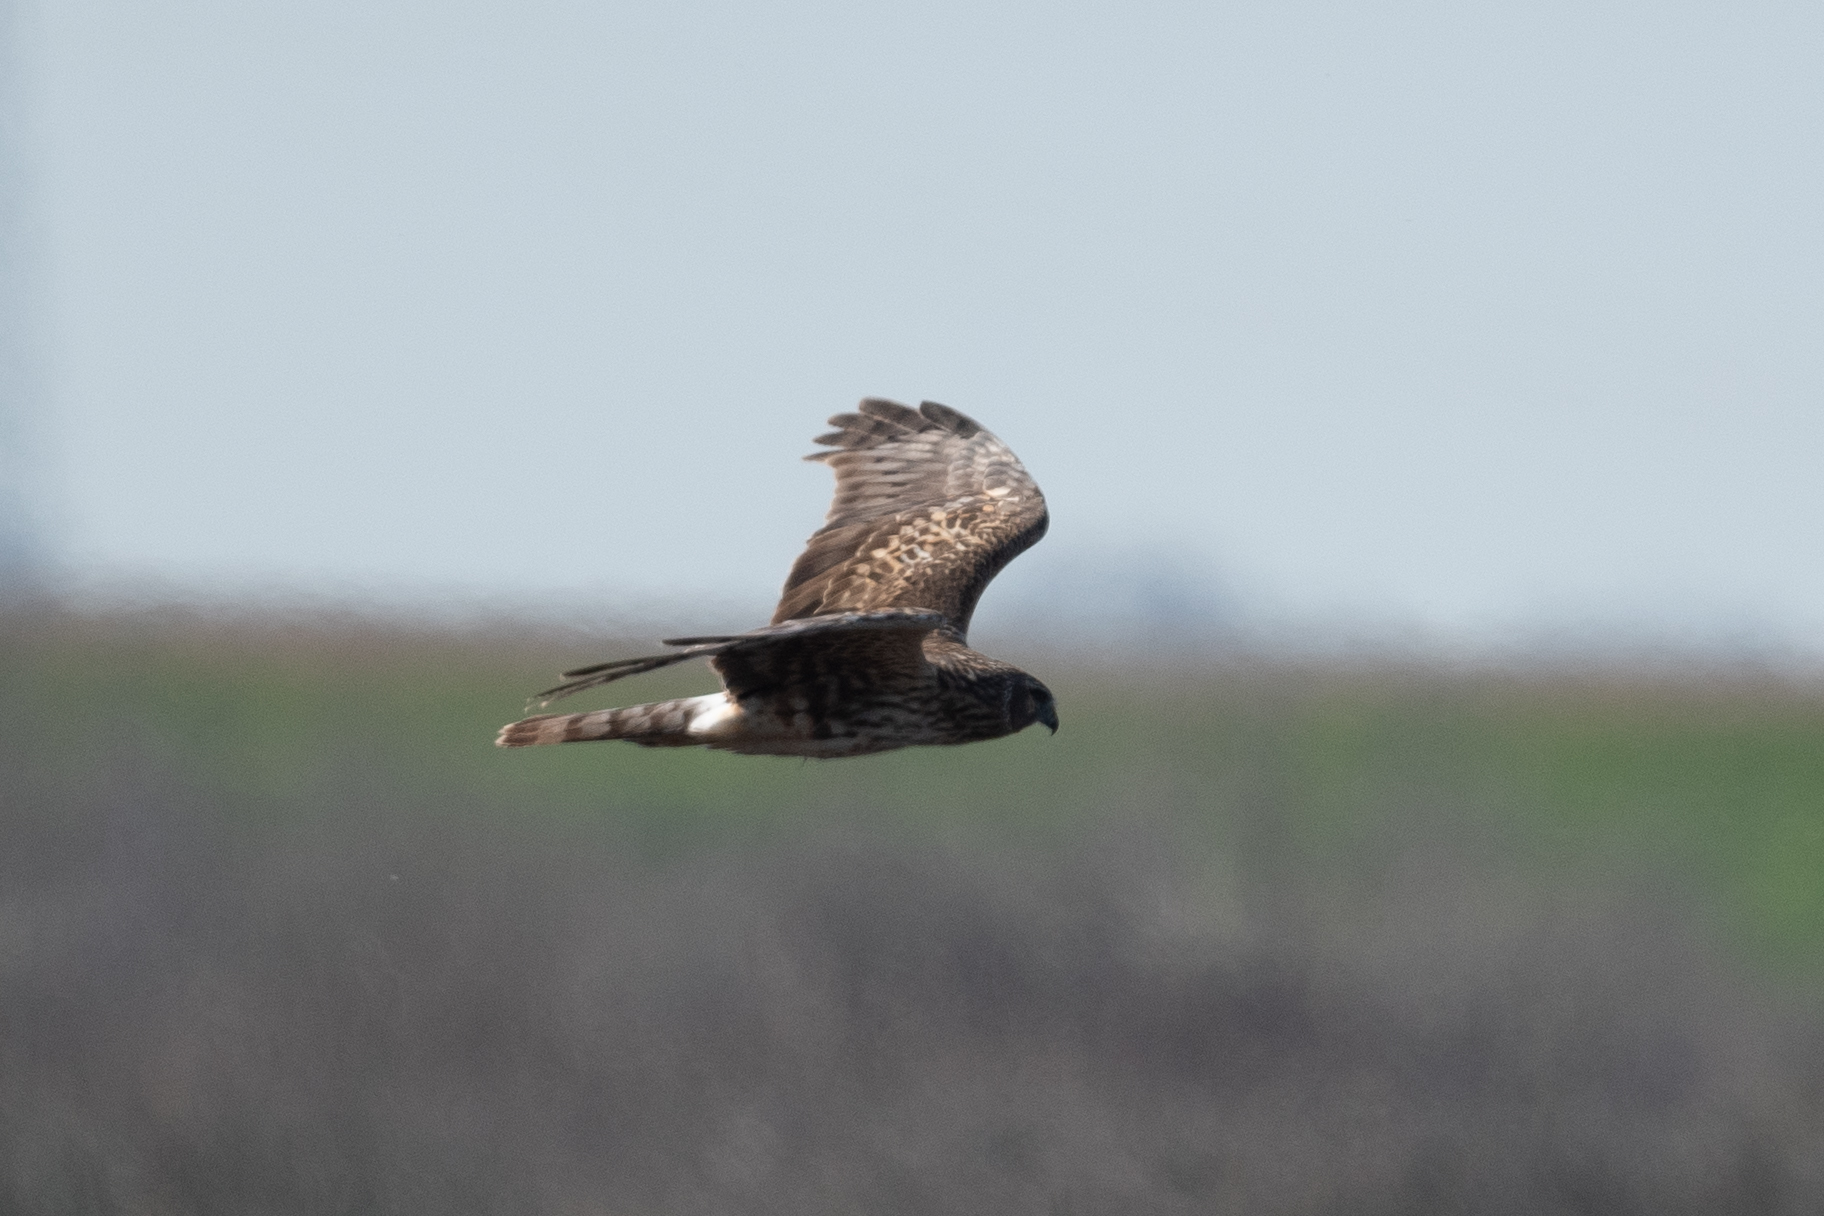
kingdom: Animalia
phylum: Chordata
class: Aves
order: Accipitriformes
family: Accipitridae
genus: Circus
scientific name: Circus cyaneus
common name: Hen harrier
